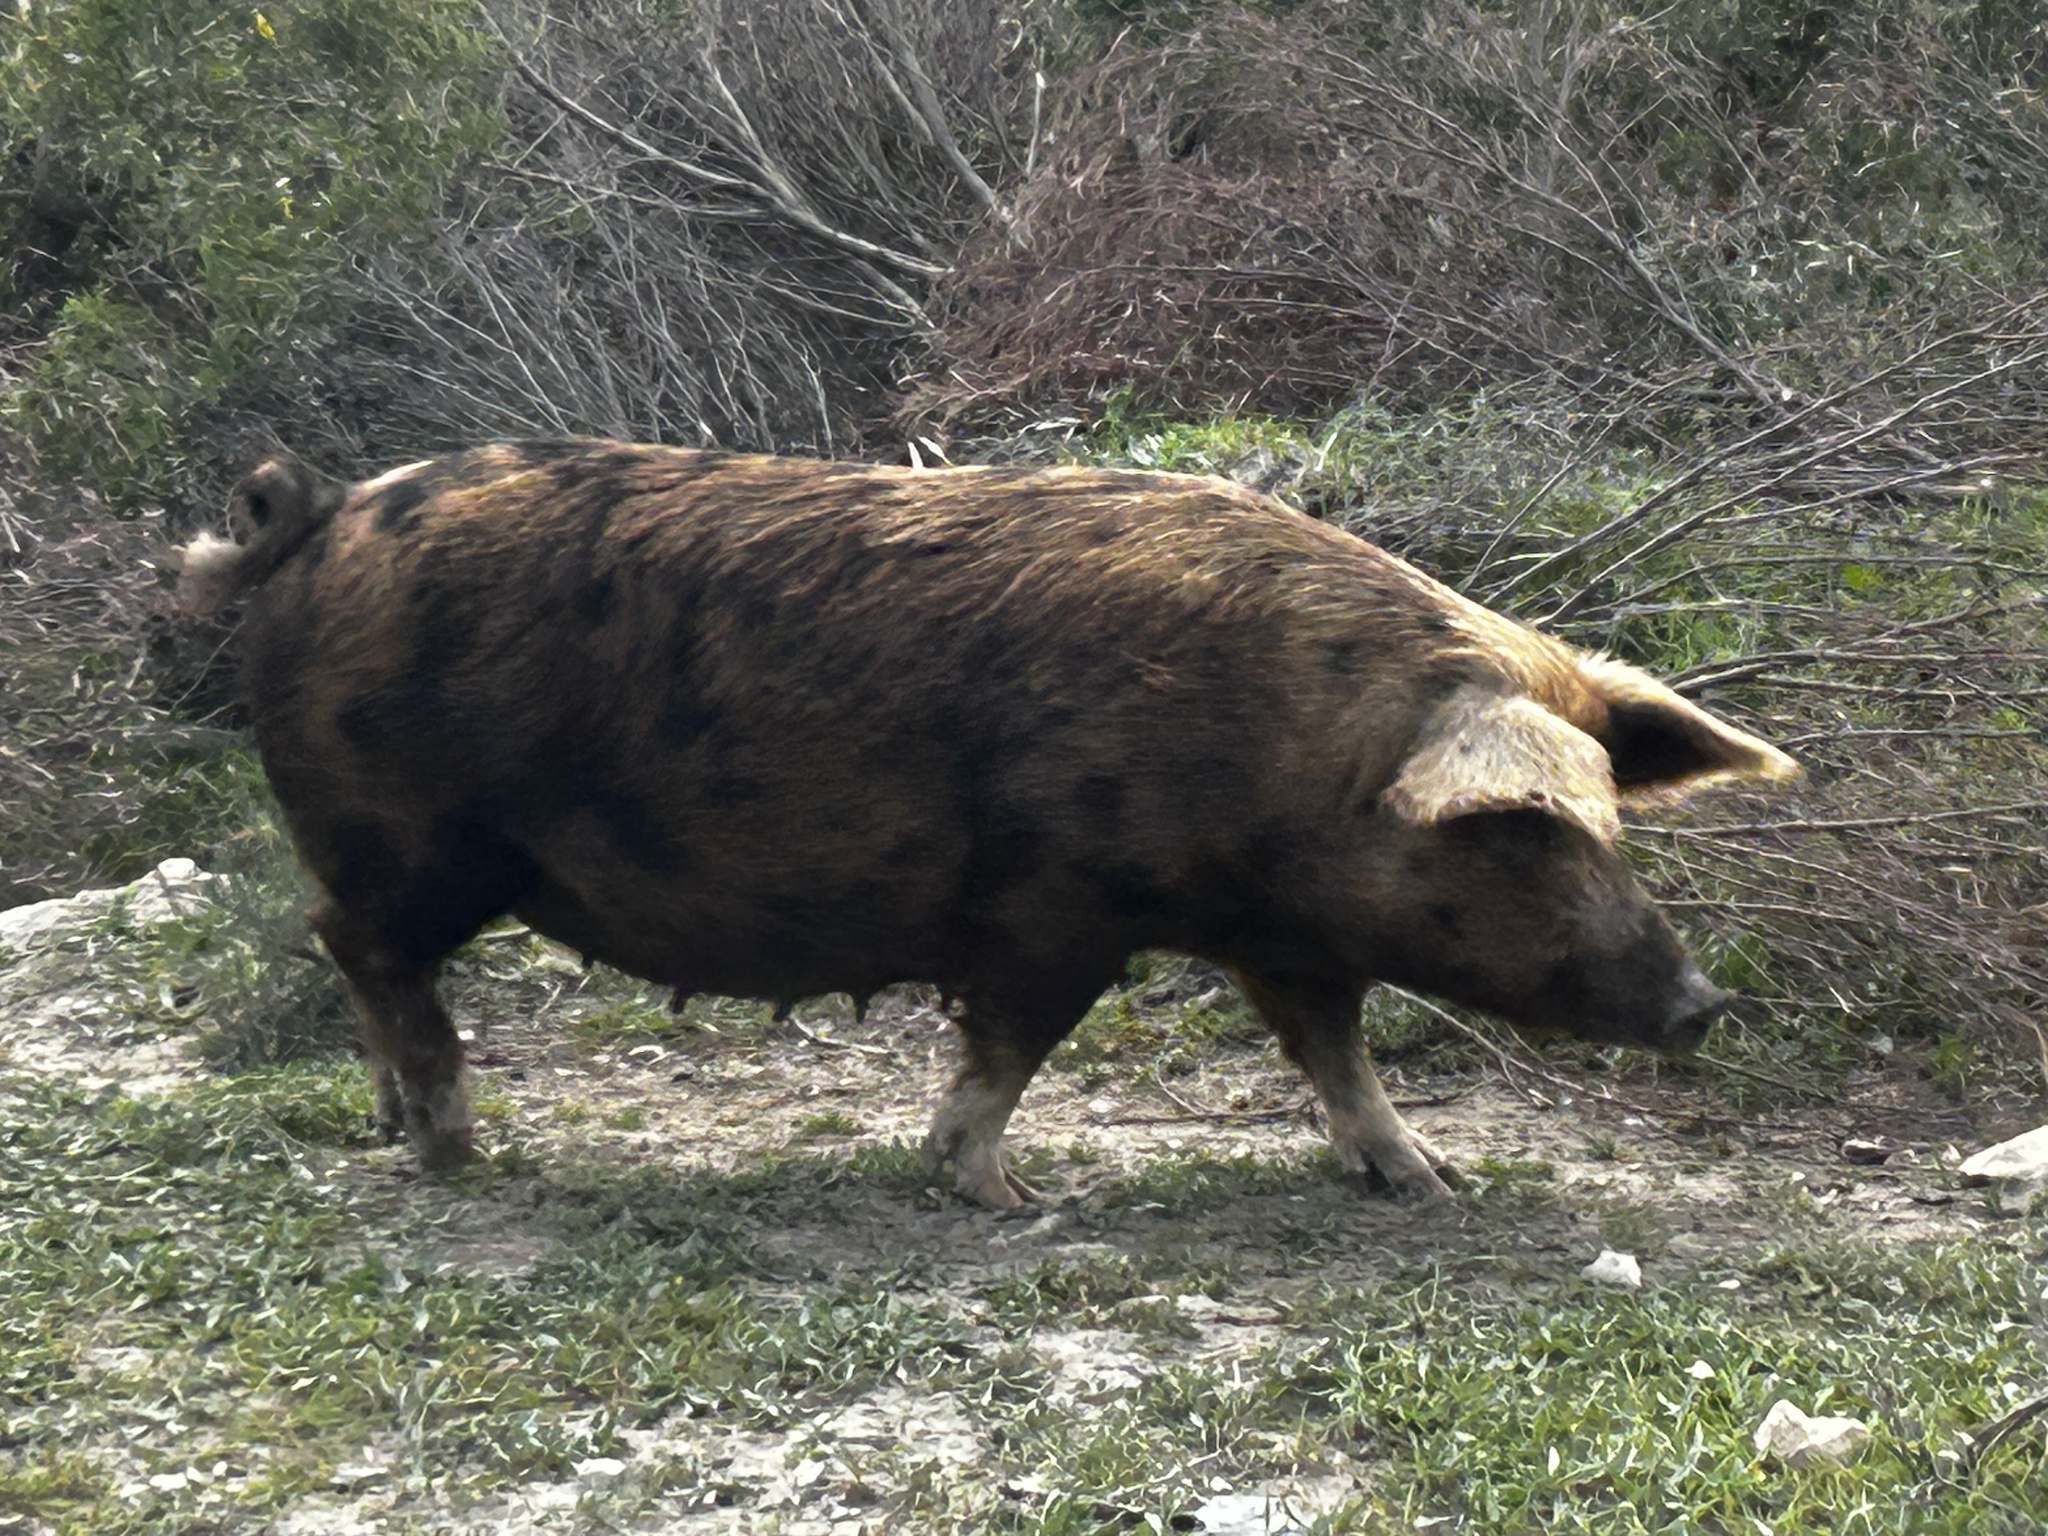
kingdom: Animalia
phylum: Chordata
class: Mammalia
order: Artiodactyla
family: Suidae
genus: Sus
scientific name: Sus scrofa
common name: Wild boar
